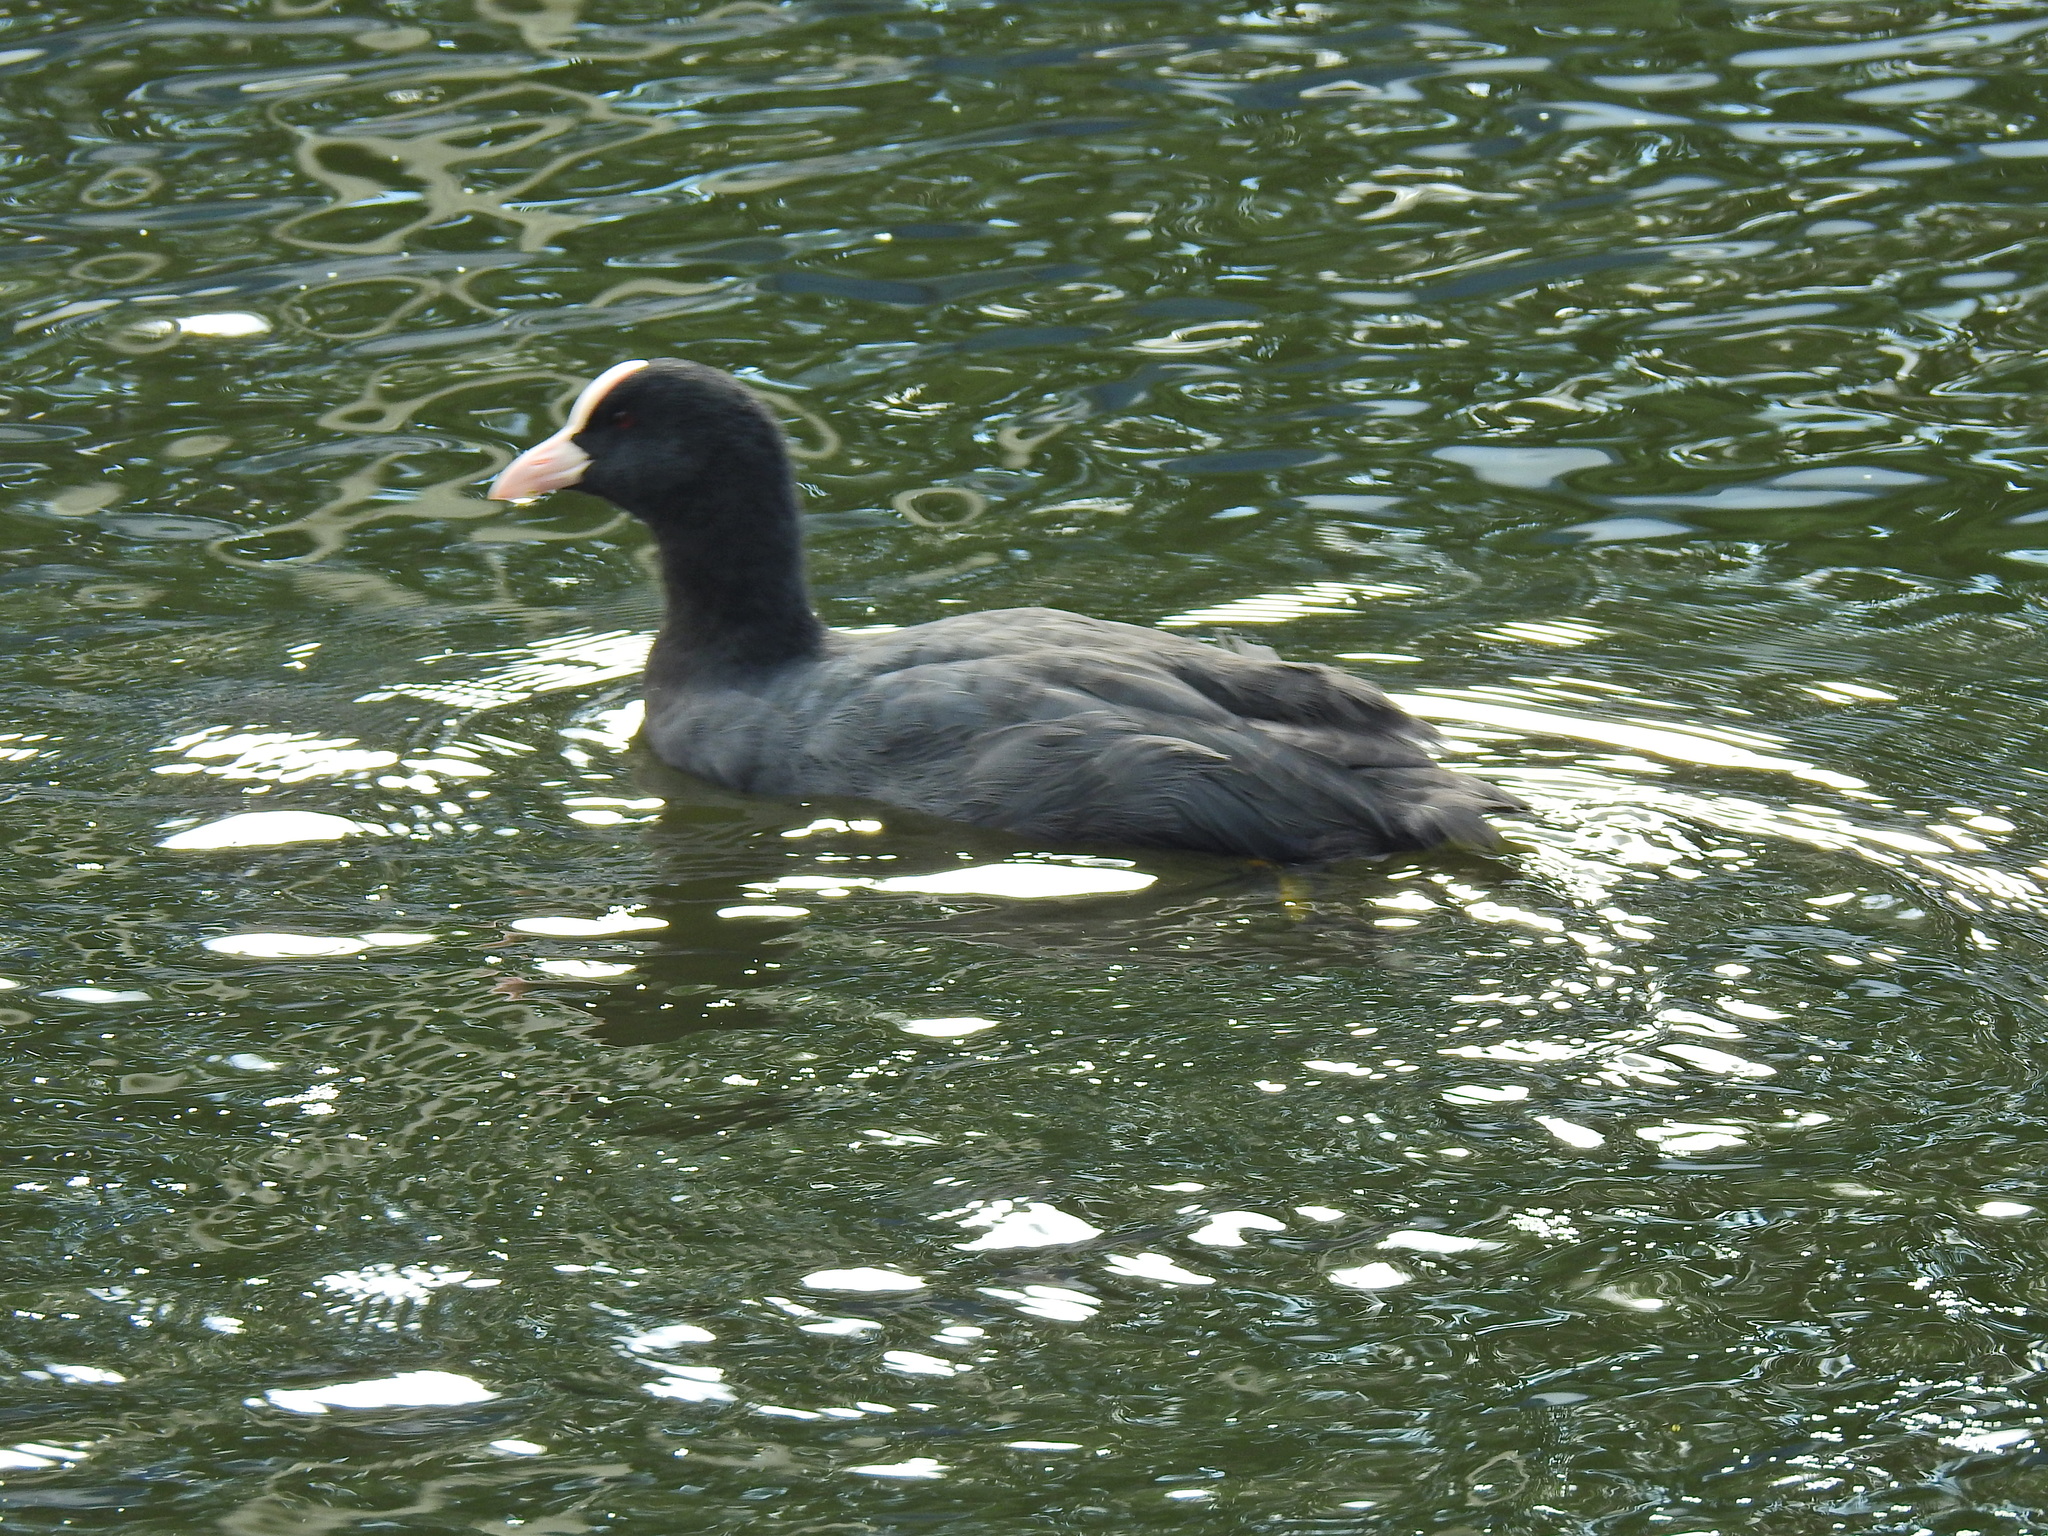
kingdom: Animalia
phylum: Chordata
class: Aves
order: Gruiformes
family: Rallidae
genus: Fulica
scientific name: Fulica atra
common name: Eurasian coot
